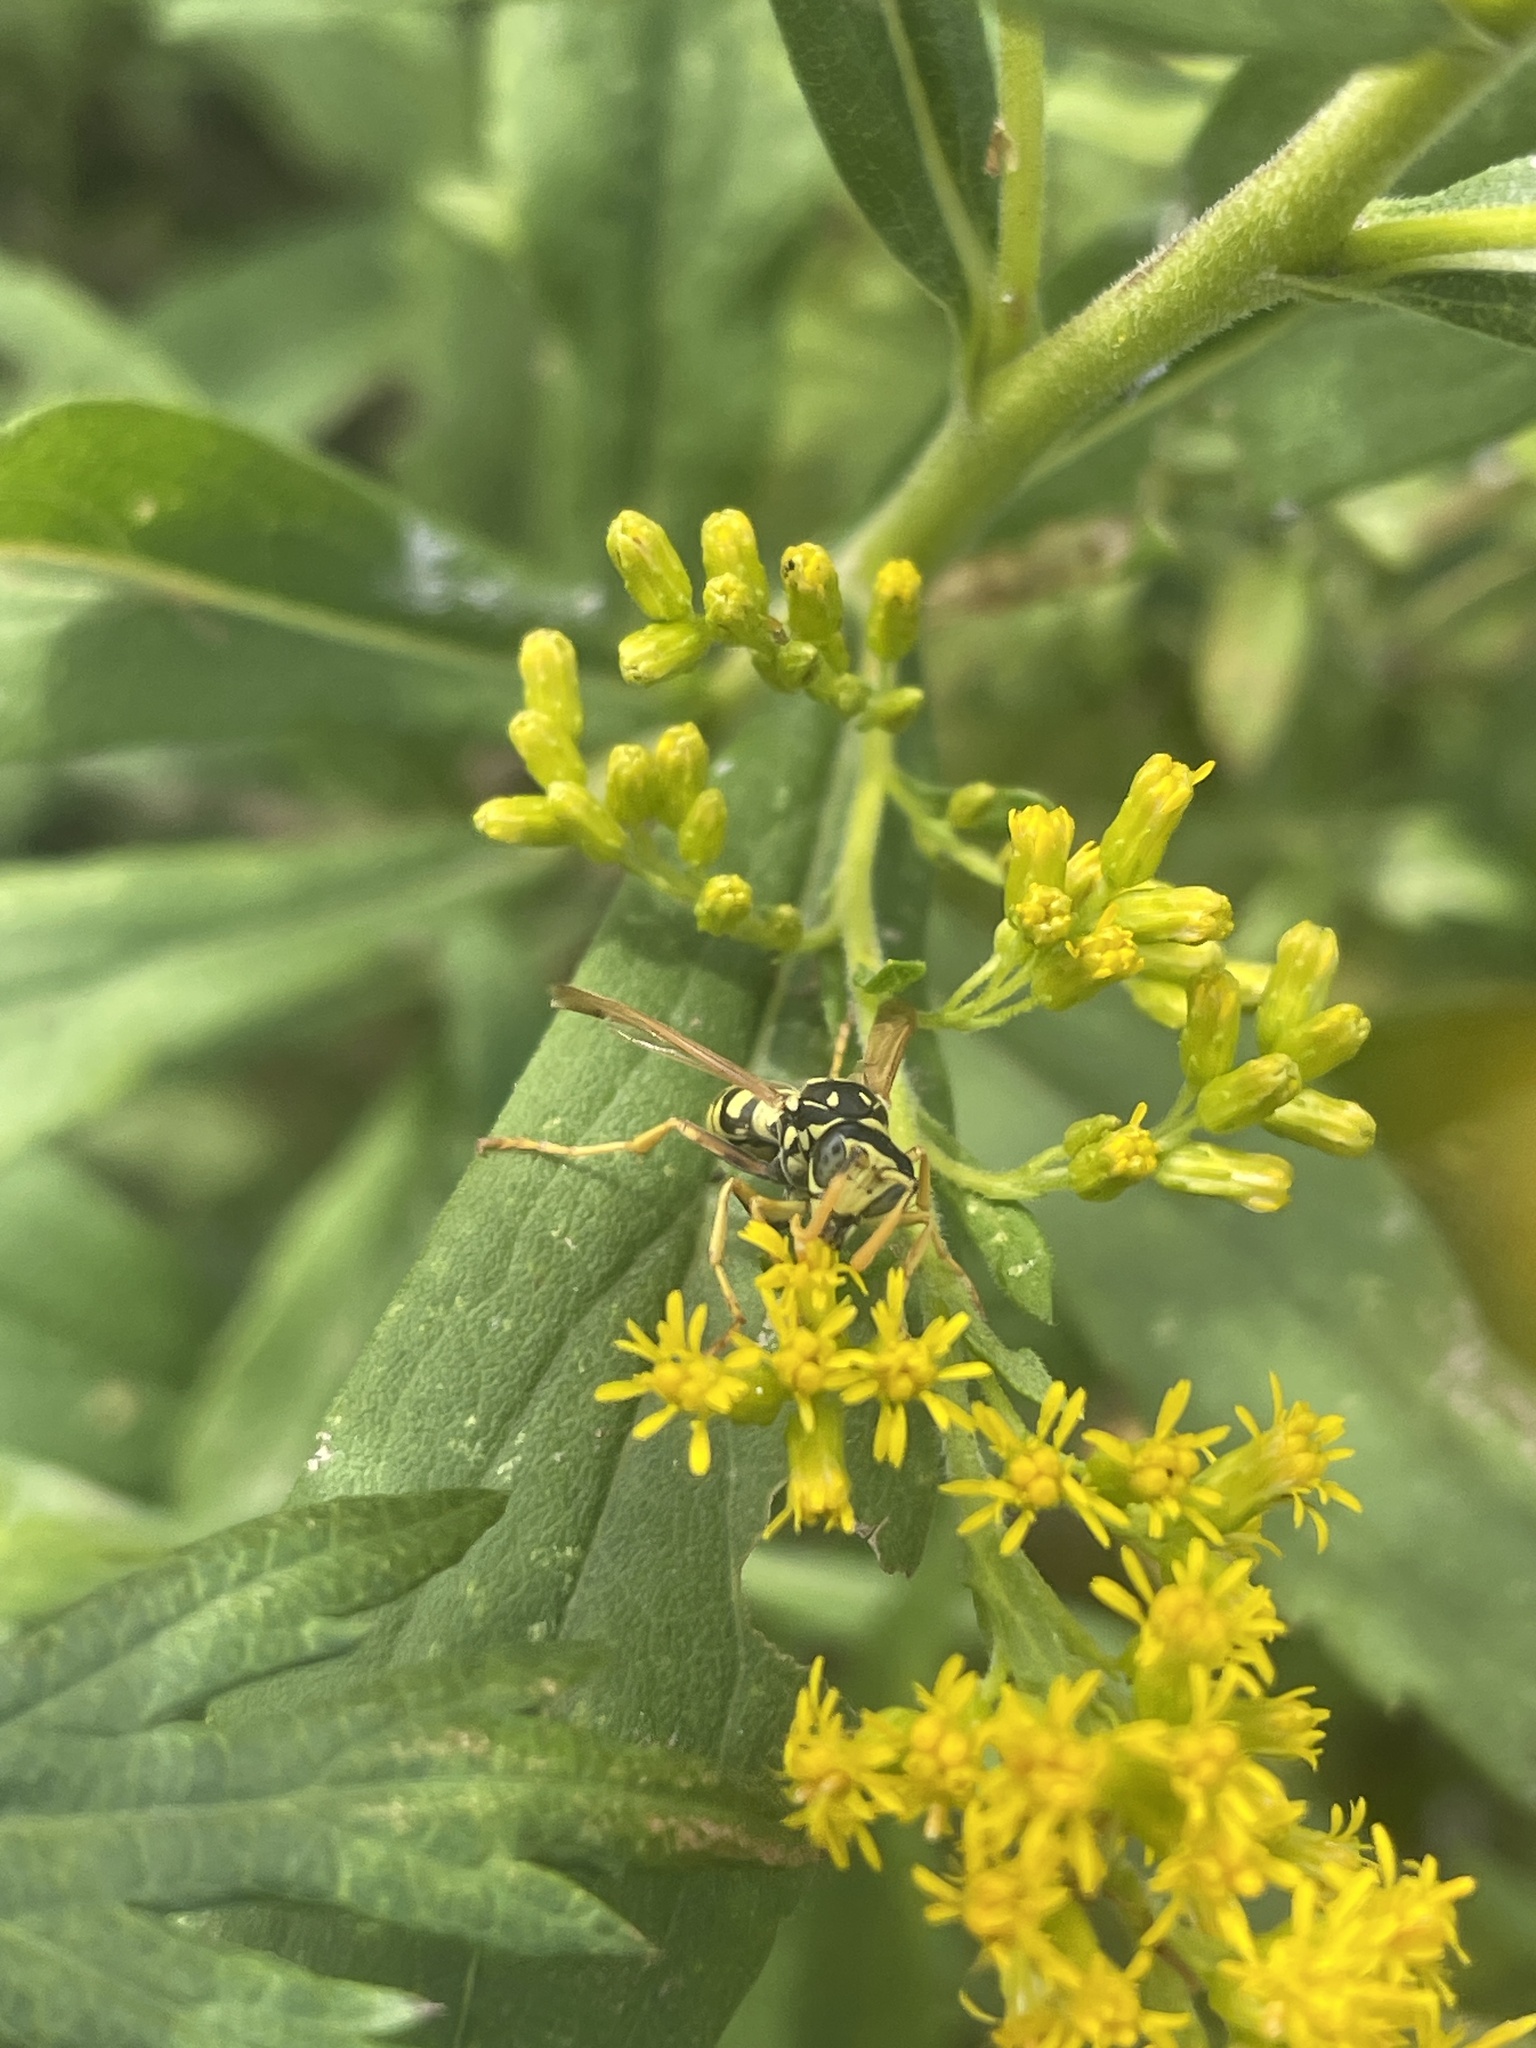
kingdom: Animalia
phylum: Arthropoda
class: Insecta
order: Hymenoptera
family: Eumenidae
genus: Polistes
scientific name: Polistes dominula
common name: Paper wasp
